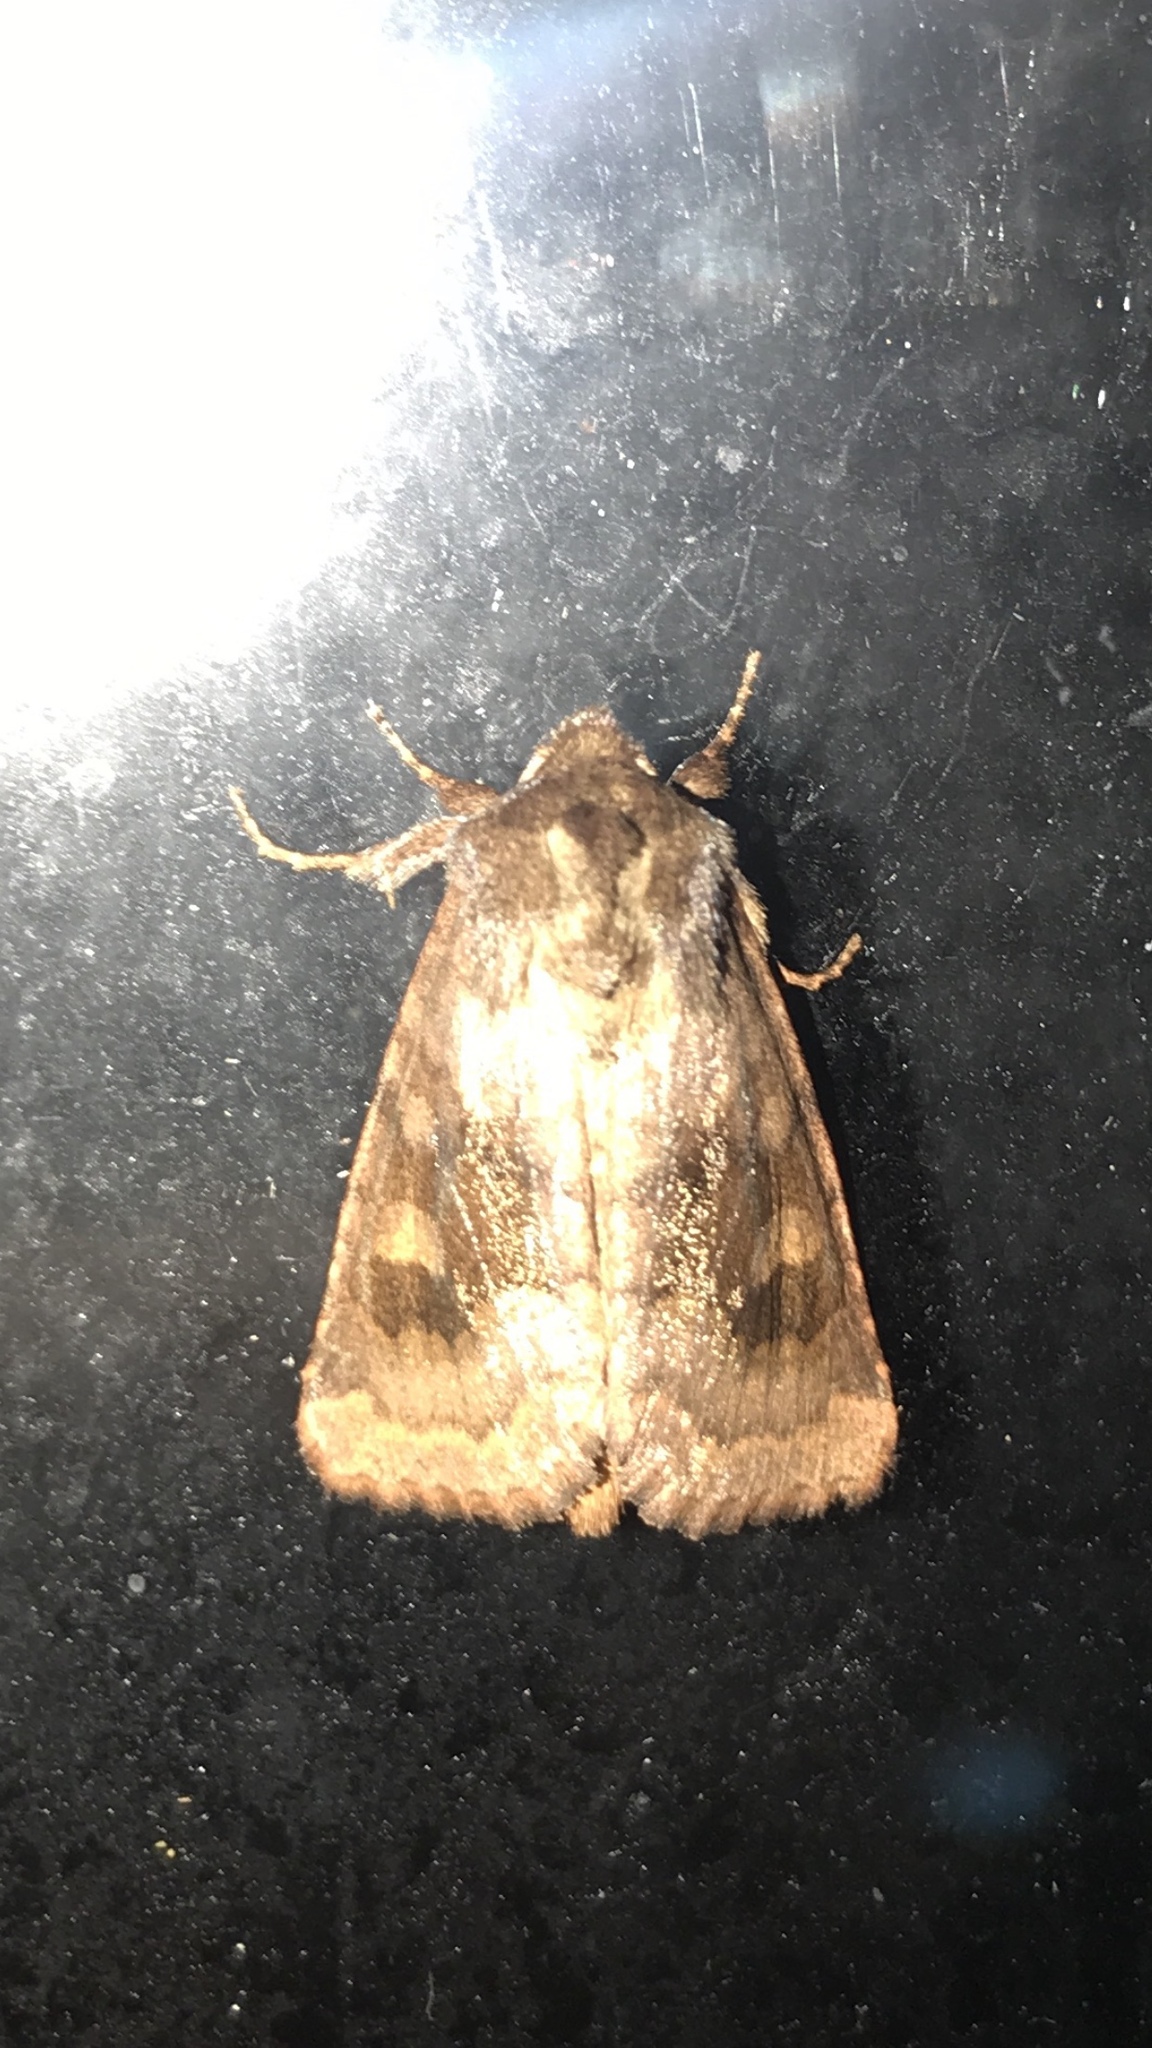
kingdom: Animalia
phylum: Arthropoda
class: Insecta
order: Lepidoptera
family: Noctuidae
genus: Nephelodes
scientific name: Nephelodes minians
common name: Bronzed cutworm
